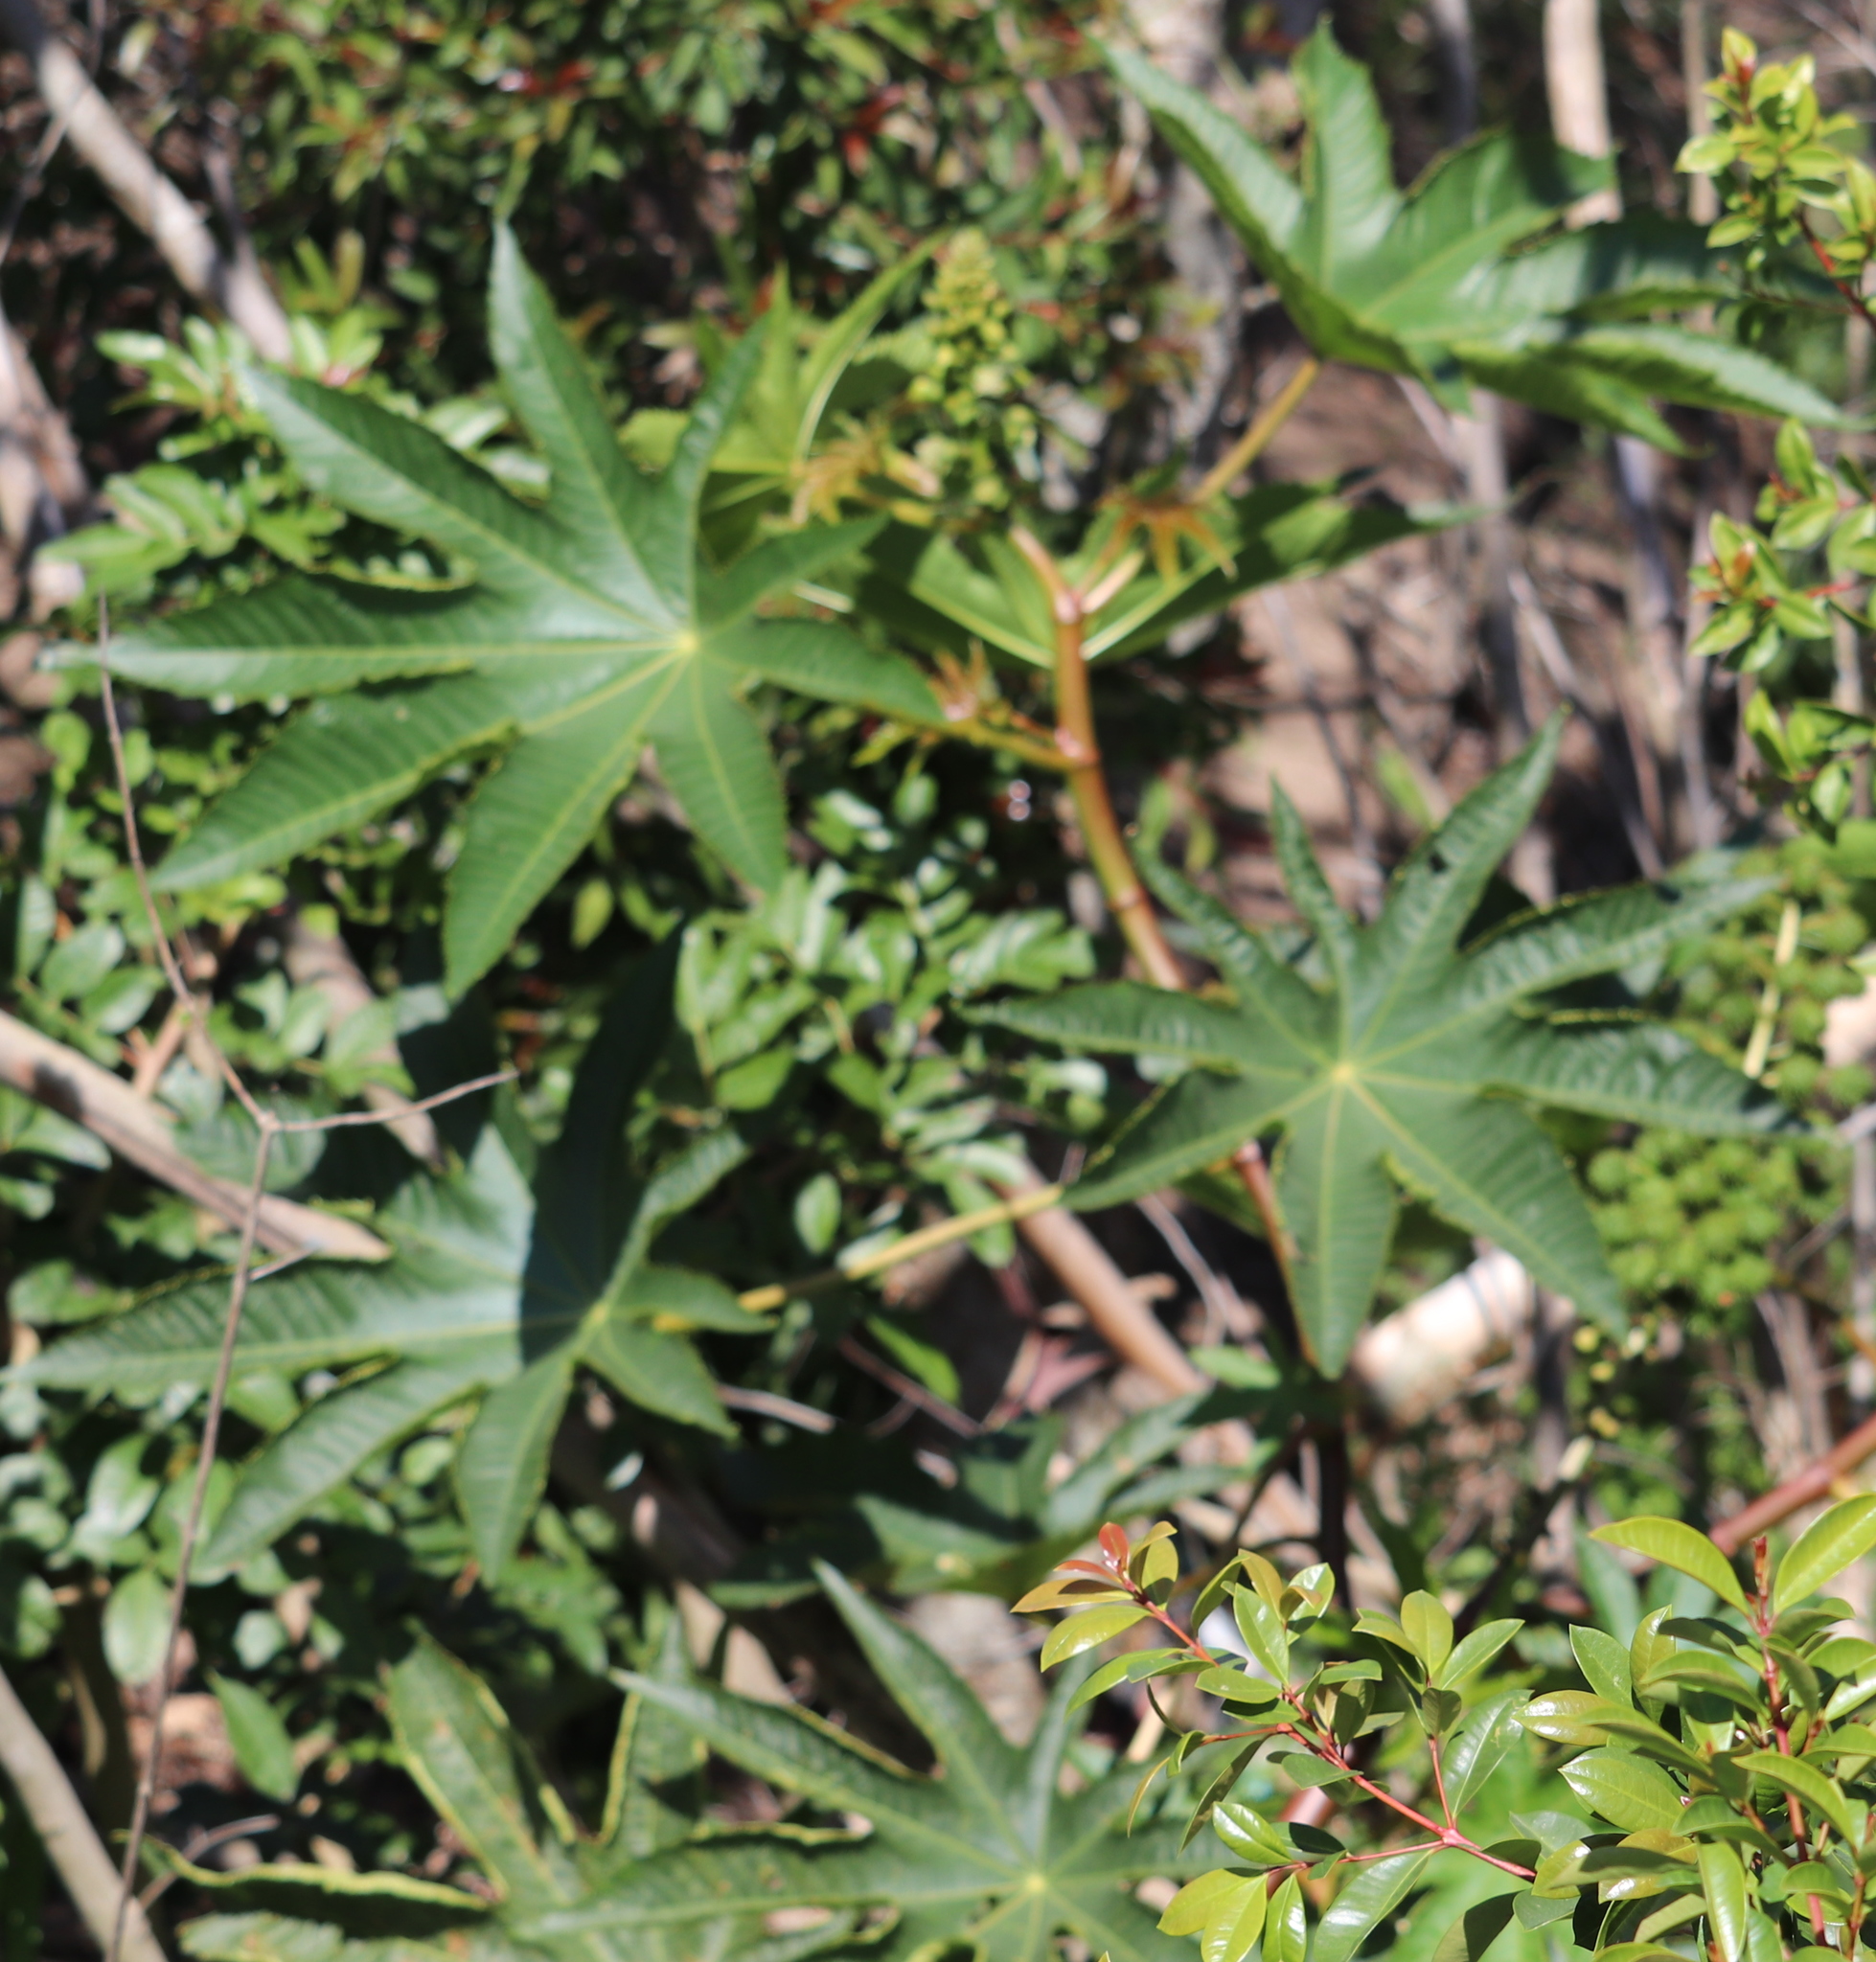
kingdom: Plantae
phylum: Tracheophyta
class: Magnoliopsida
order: Malpighiales
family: Euphorbiaceae
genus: Ricinus
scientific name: Ricinus communis
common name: Castor-oil-plant
